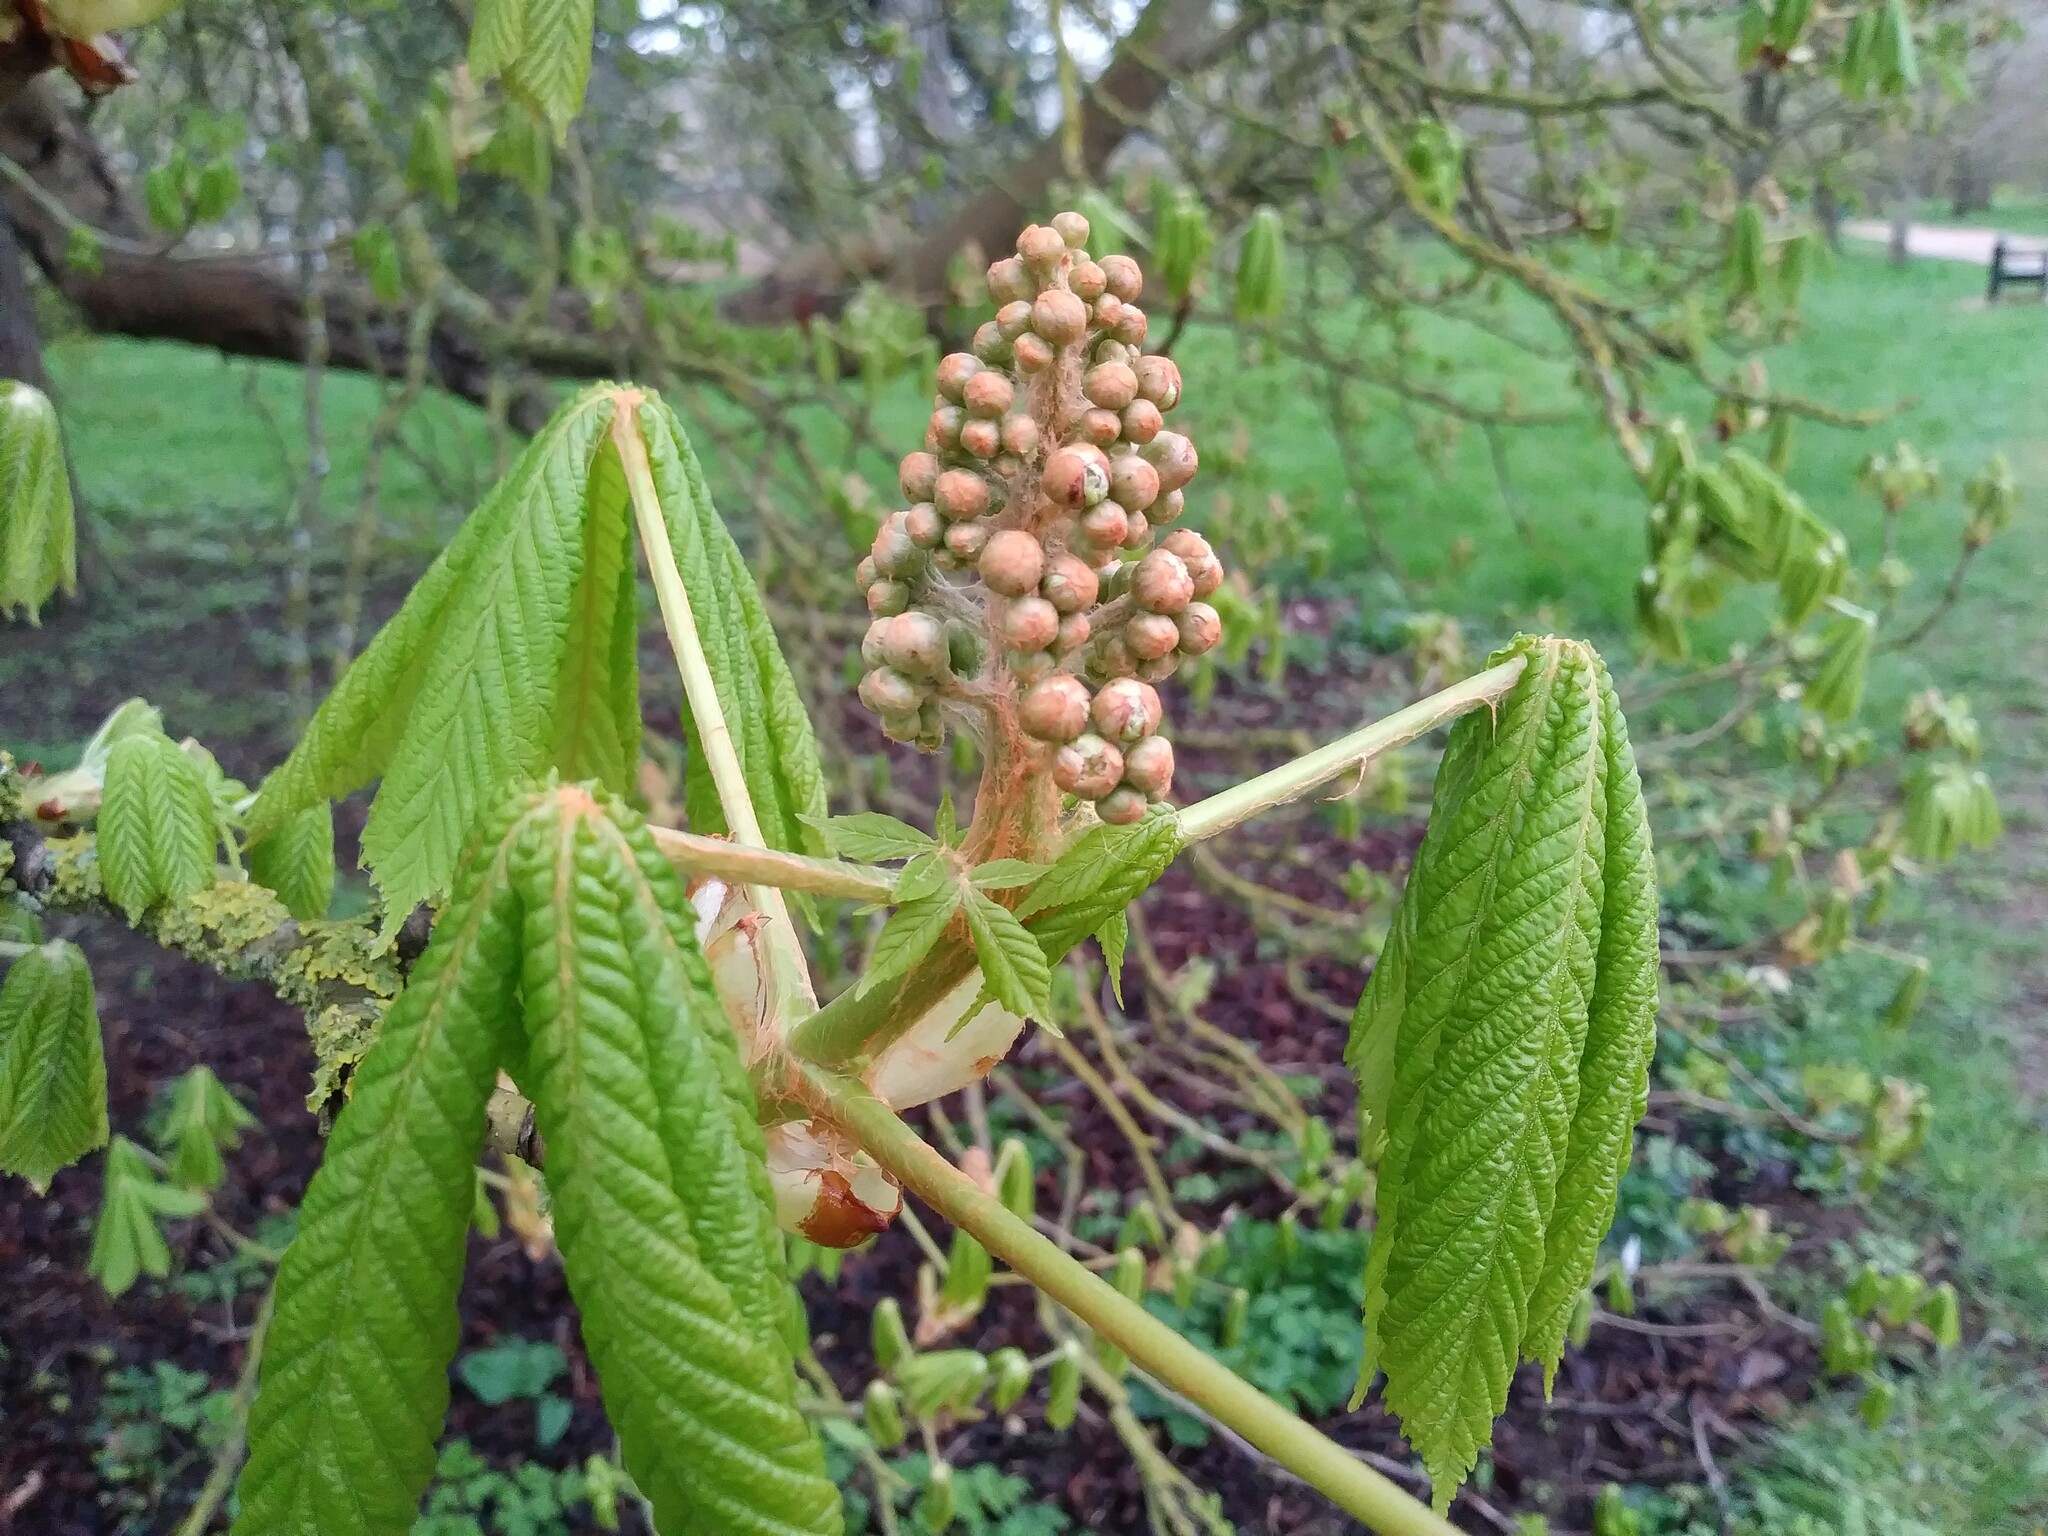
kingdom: Plantae
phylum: Tracheophyta
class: Magnoliopsida
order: Sapindales
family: Sapindaceae
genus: Aesculus
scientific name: Aesculus hippocastanum
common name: Horse-chestnut
